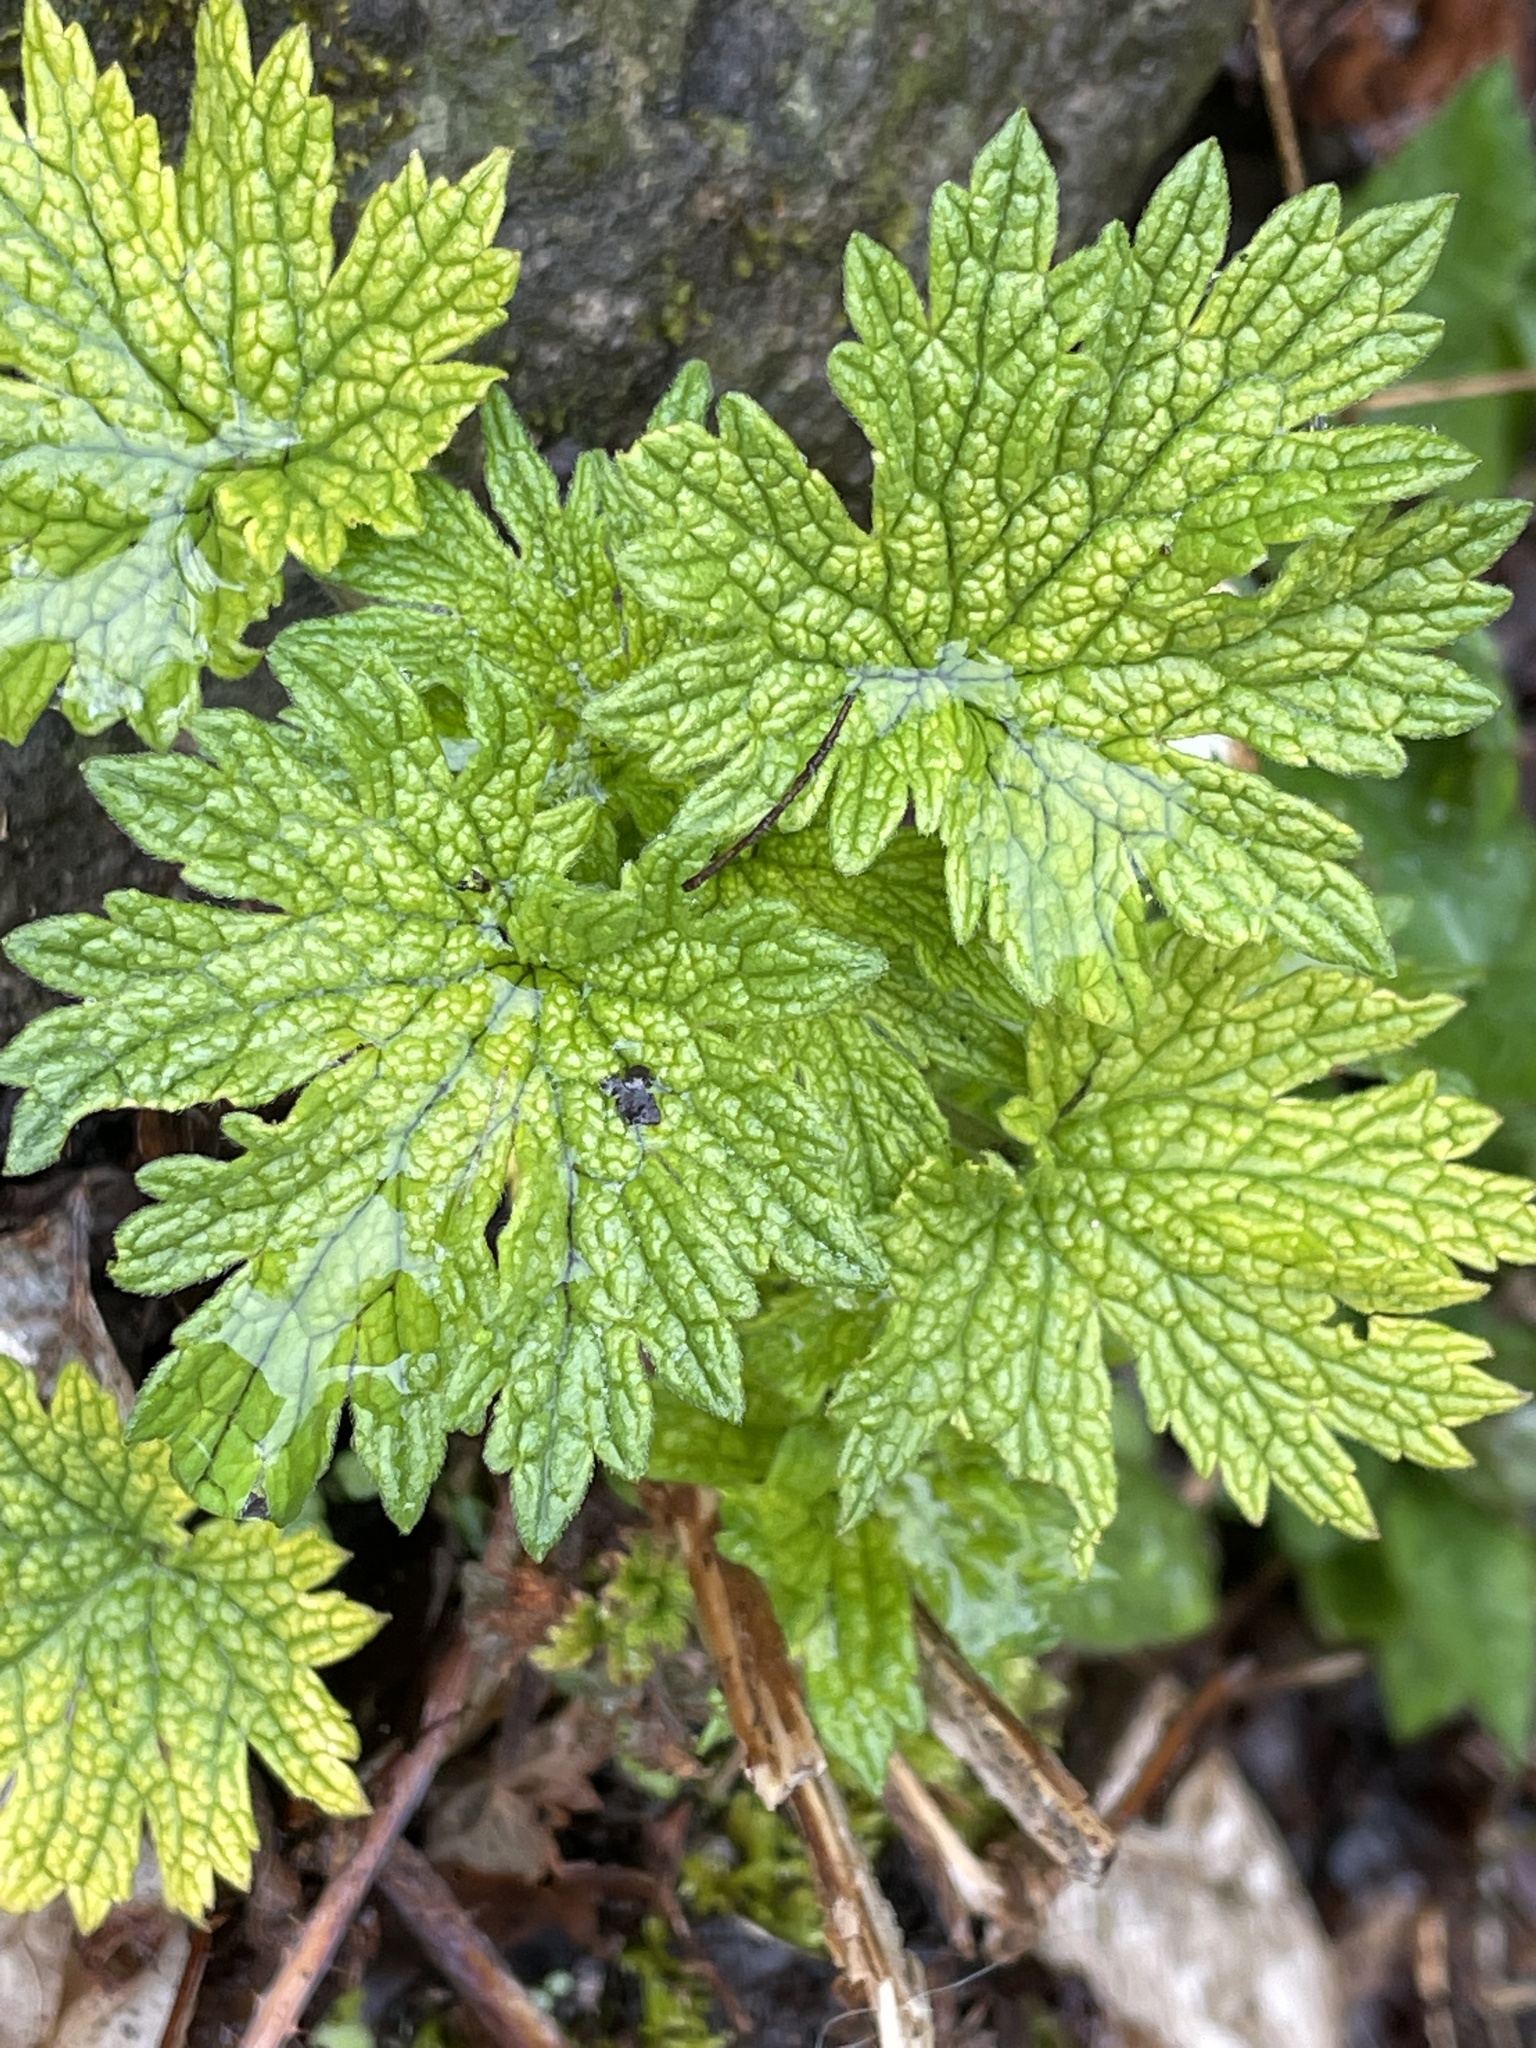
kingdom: Plantae
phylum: Tracheophyta
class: Magnoliopsida
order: Lamiales
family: Lamiaceae
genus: Leonurus
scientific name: Leonurus cardiaca
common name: Motherwort
